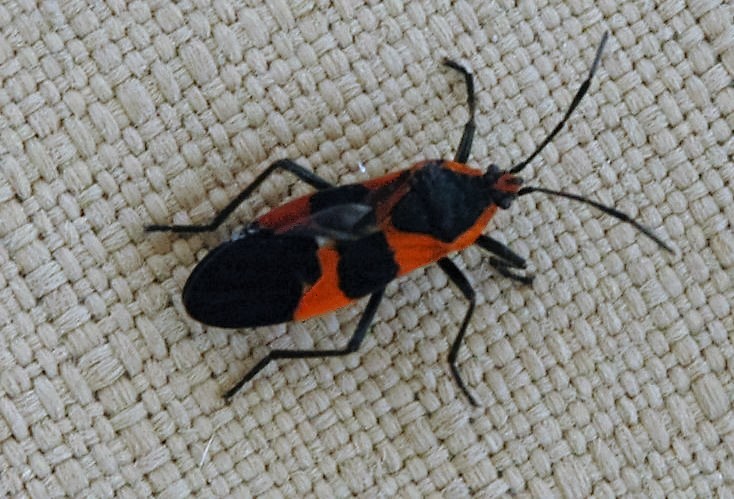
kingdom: Animalia
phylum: Arthropoda
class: Insecta
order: Hemiptera
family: Lygaeidae
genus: Oncopeltus
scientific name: Oncopeltus fasciatus
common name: Large milkweed bug
